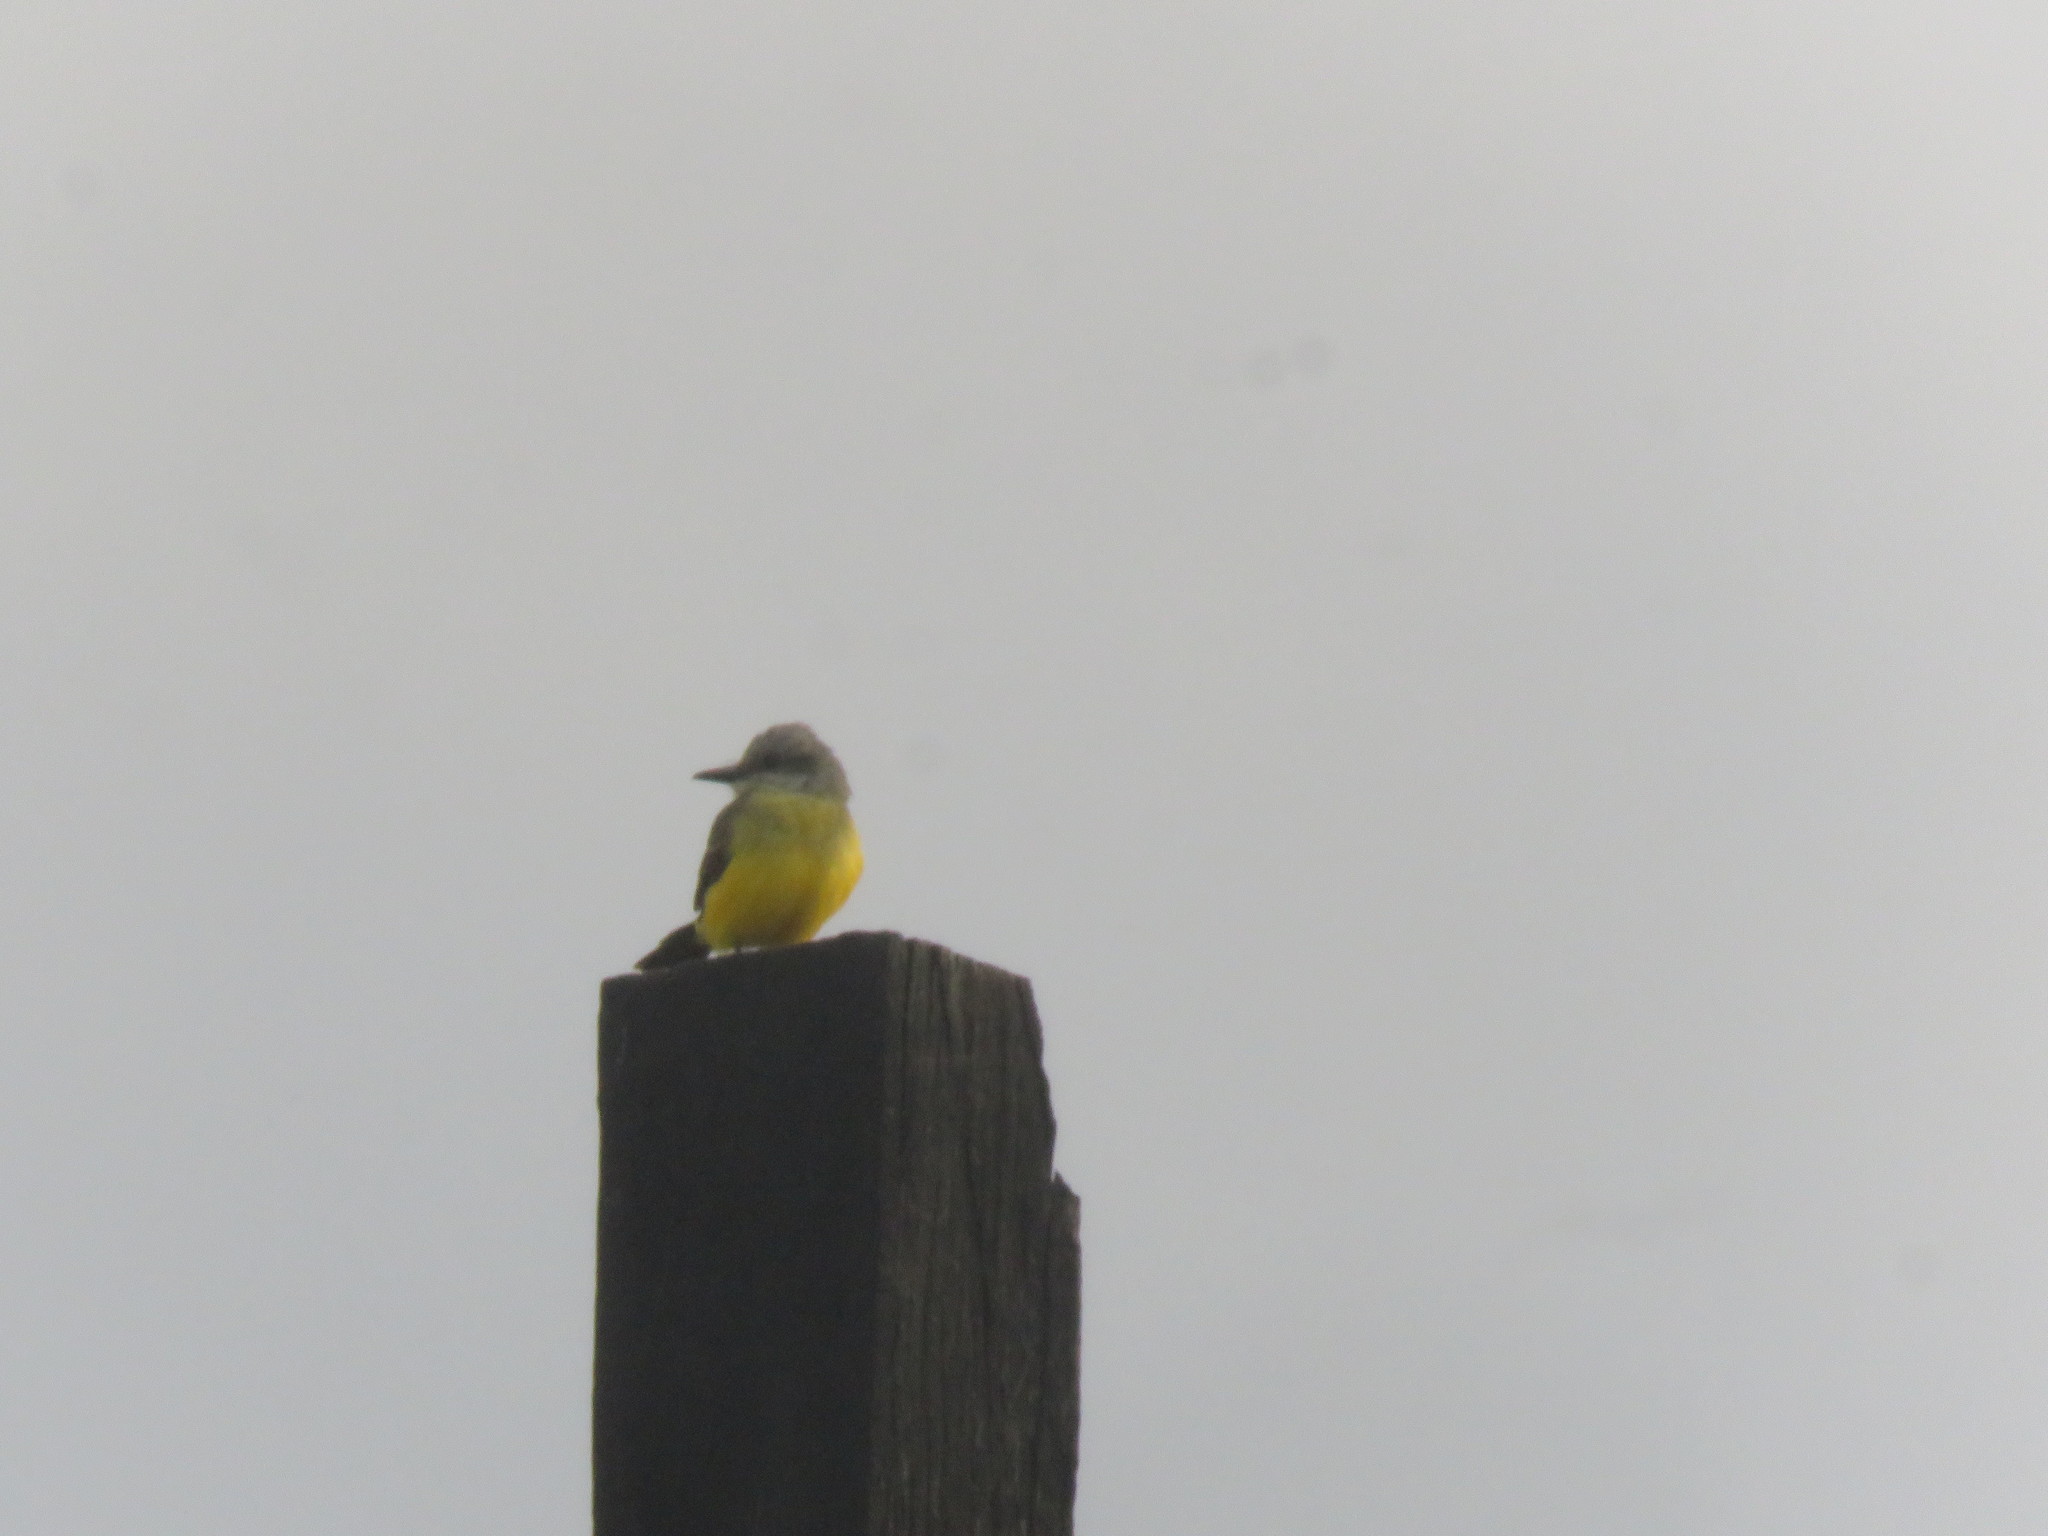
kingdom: Animalia
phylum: Chordata
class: Aves
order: Passeriformes
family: Tyrannidae
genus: Tyrannus
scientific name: Tyrannus melancholicus
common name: Tropical kingbird
